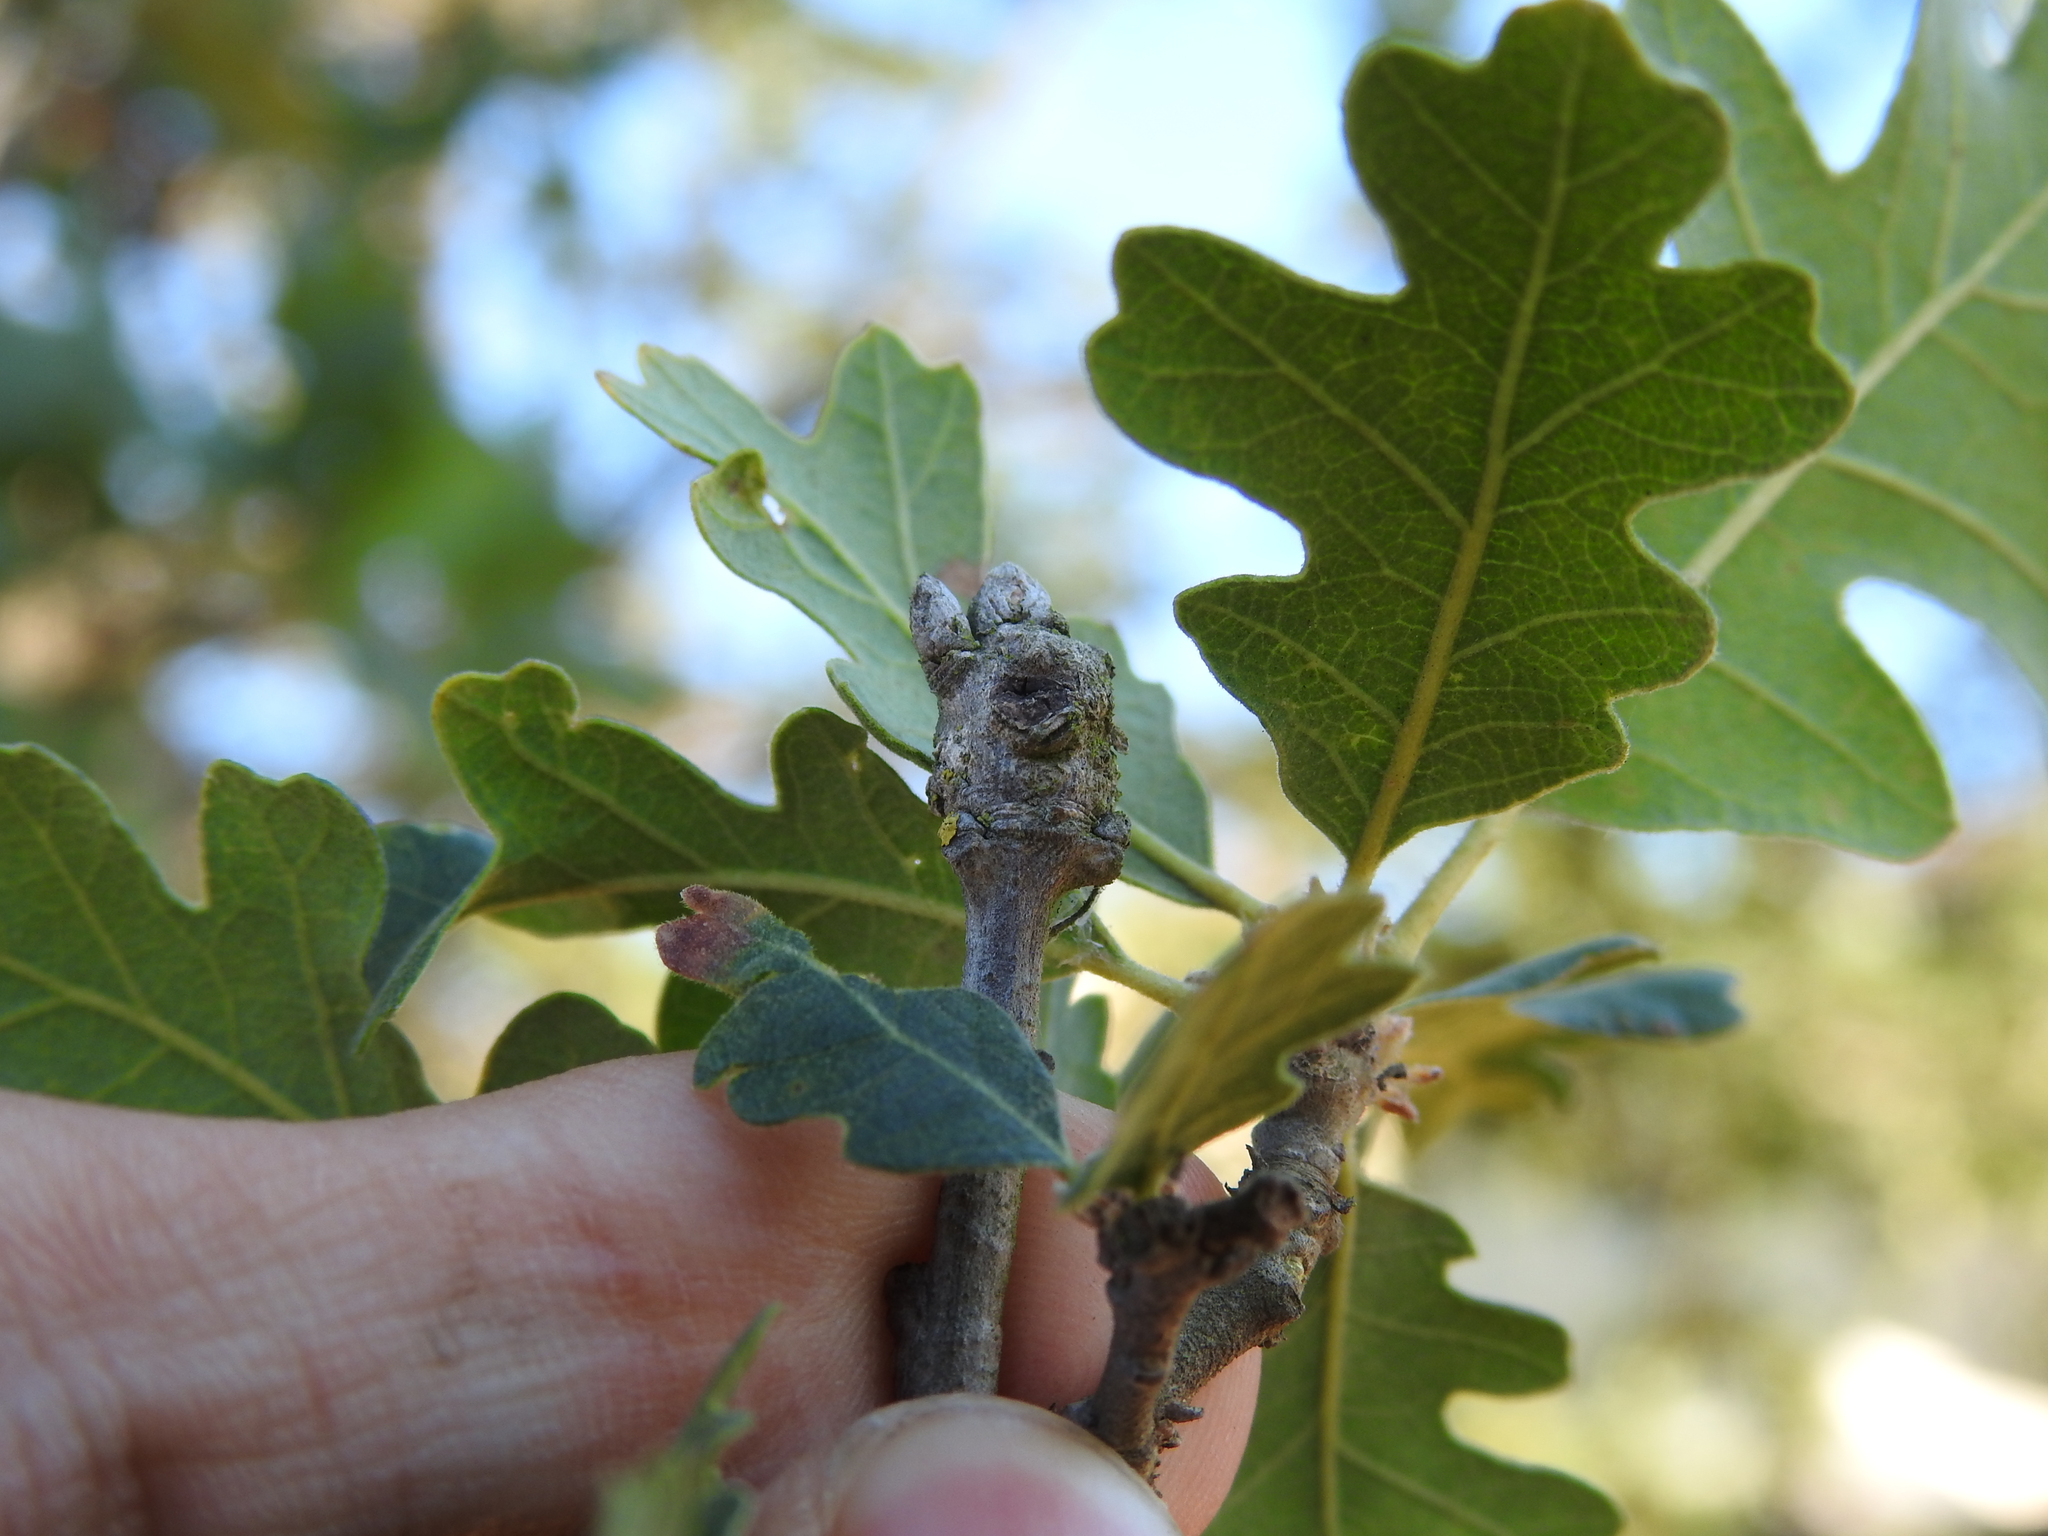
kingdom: Animalia
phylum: Arthropoda
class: Insecta
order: Hymenoptera
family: Cynipidae
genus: Neuroterus
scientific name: Neuroterus
